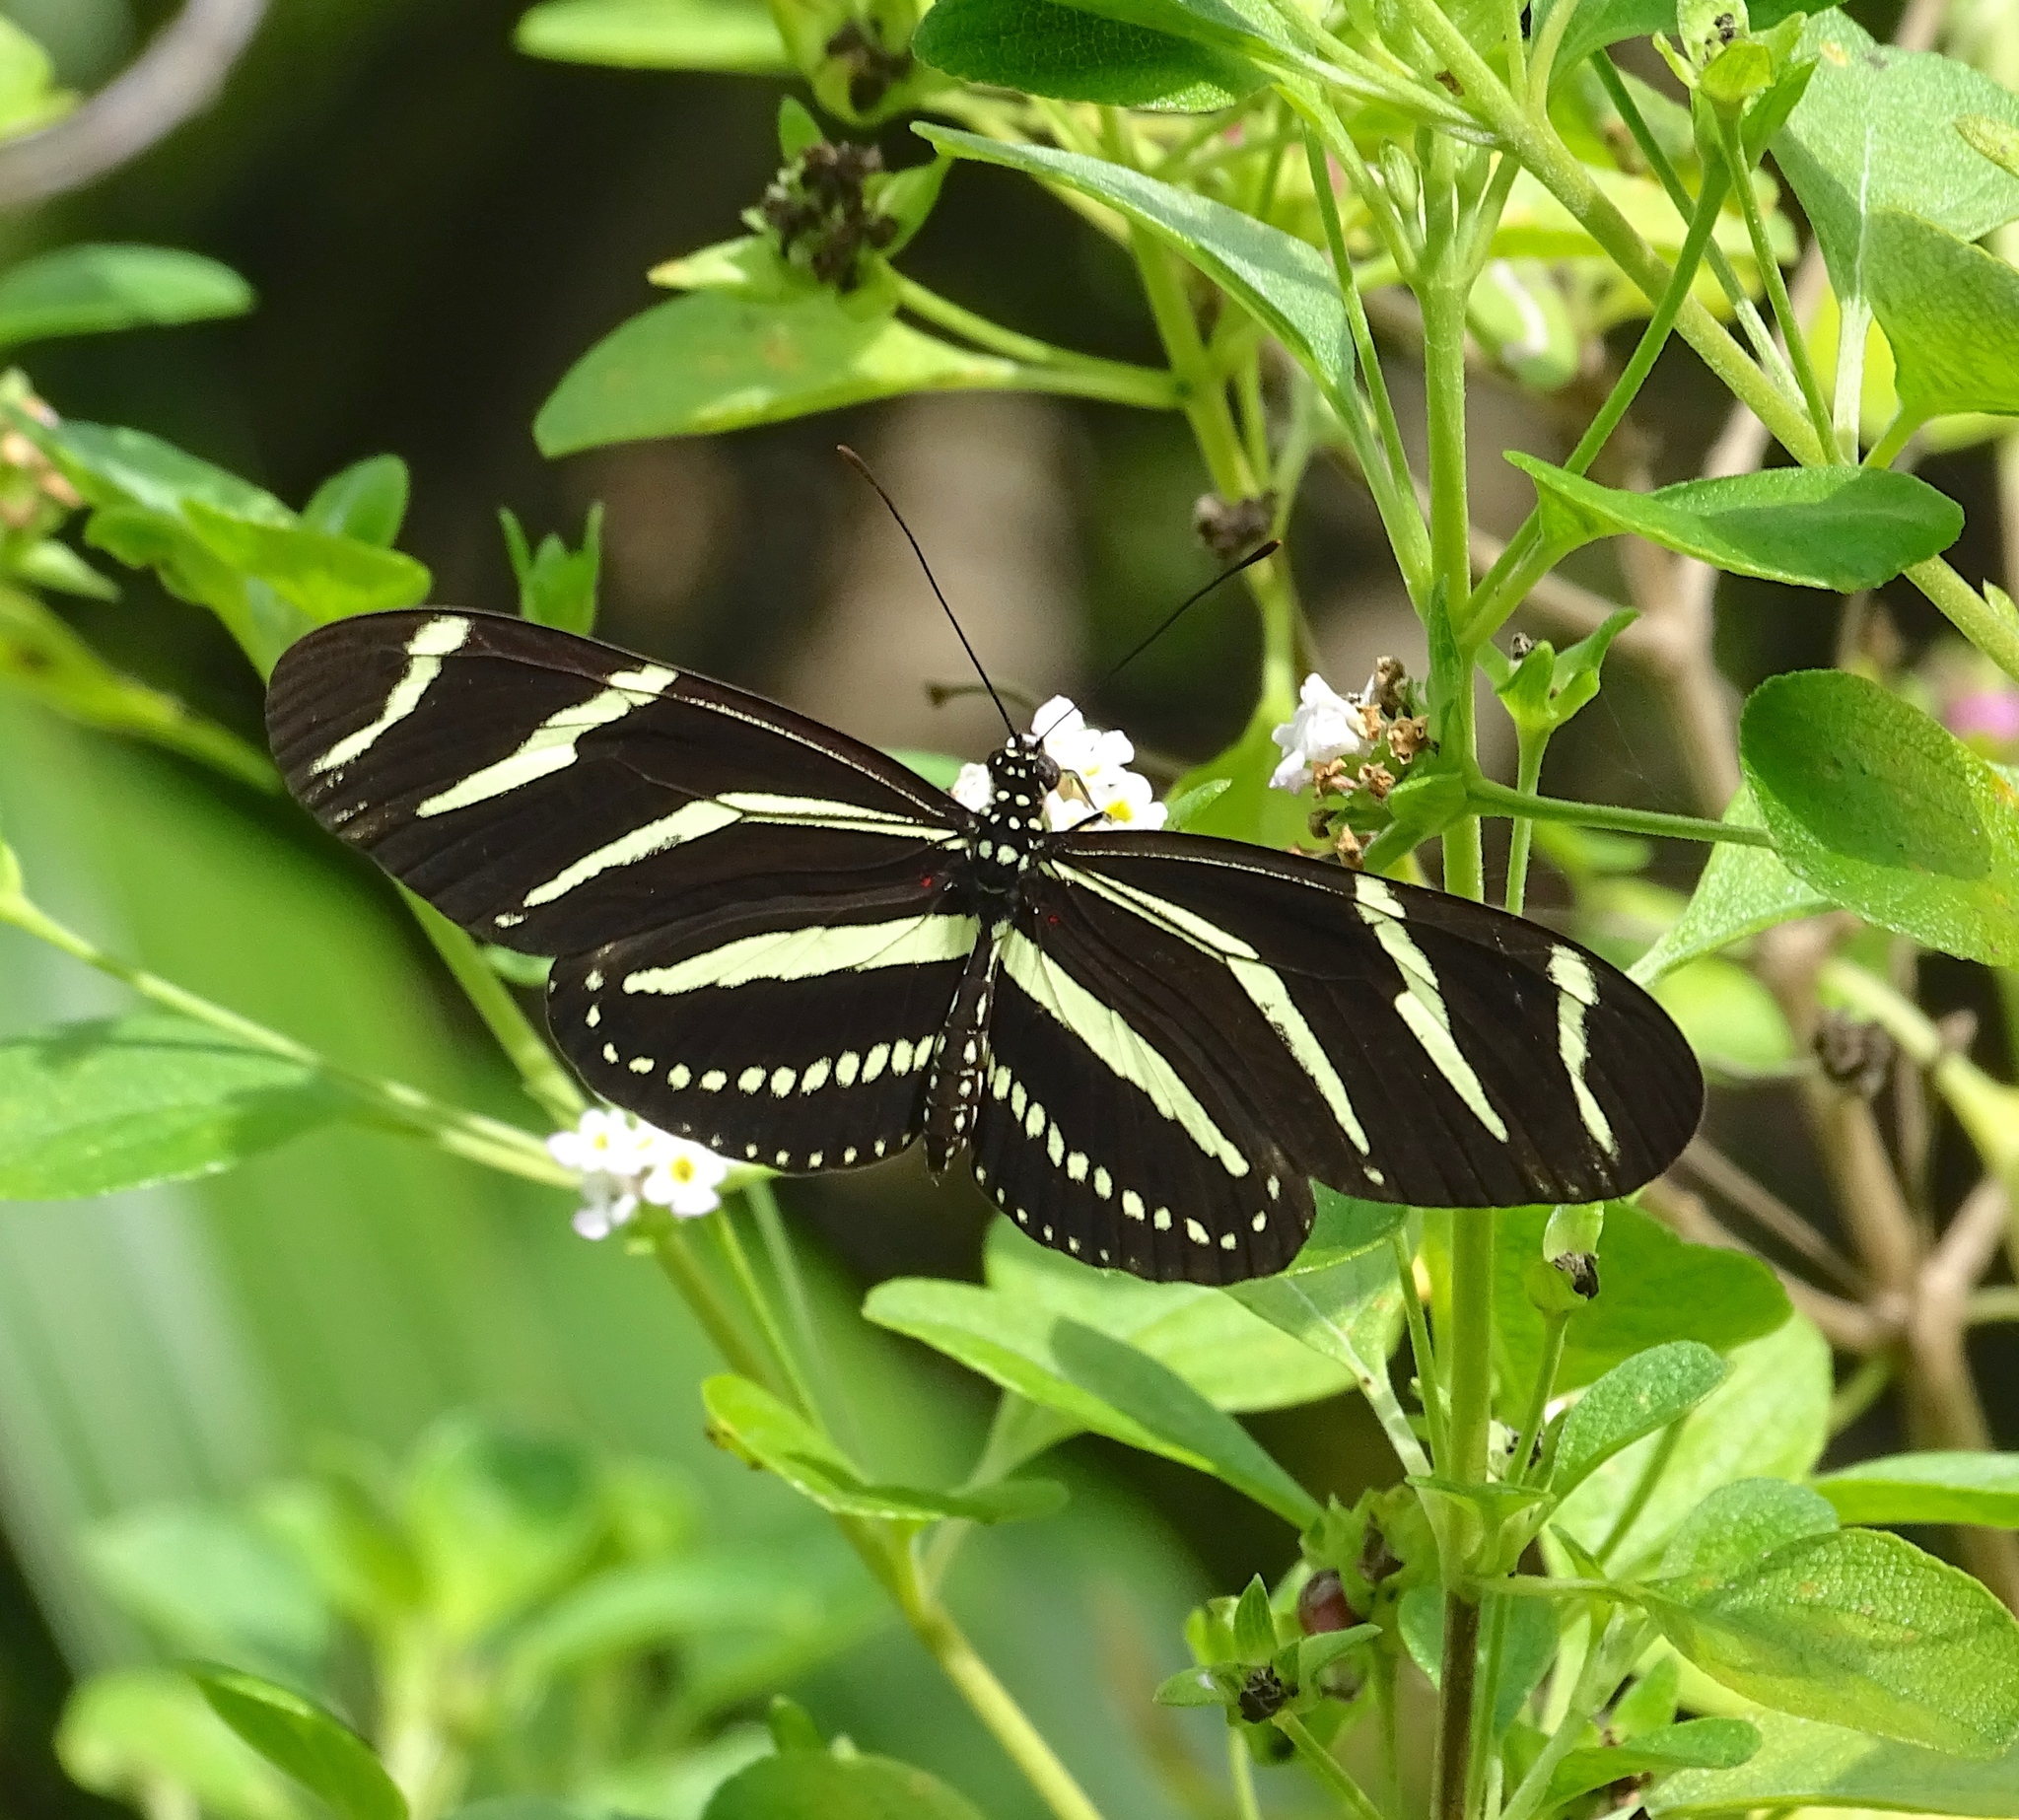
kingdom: Animalia
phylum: Arthropoda
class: Insecta
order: Lepidoptera
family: Nymphalidae
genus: Heliconius
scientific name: Heliconius charithonia
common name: Zebra long wing
